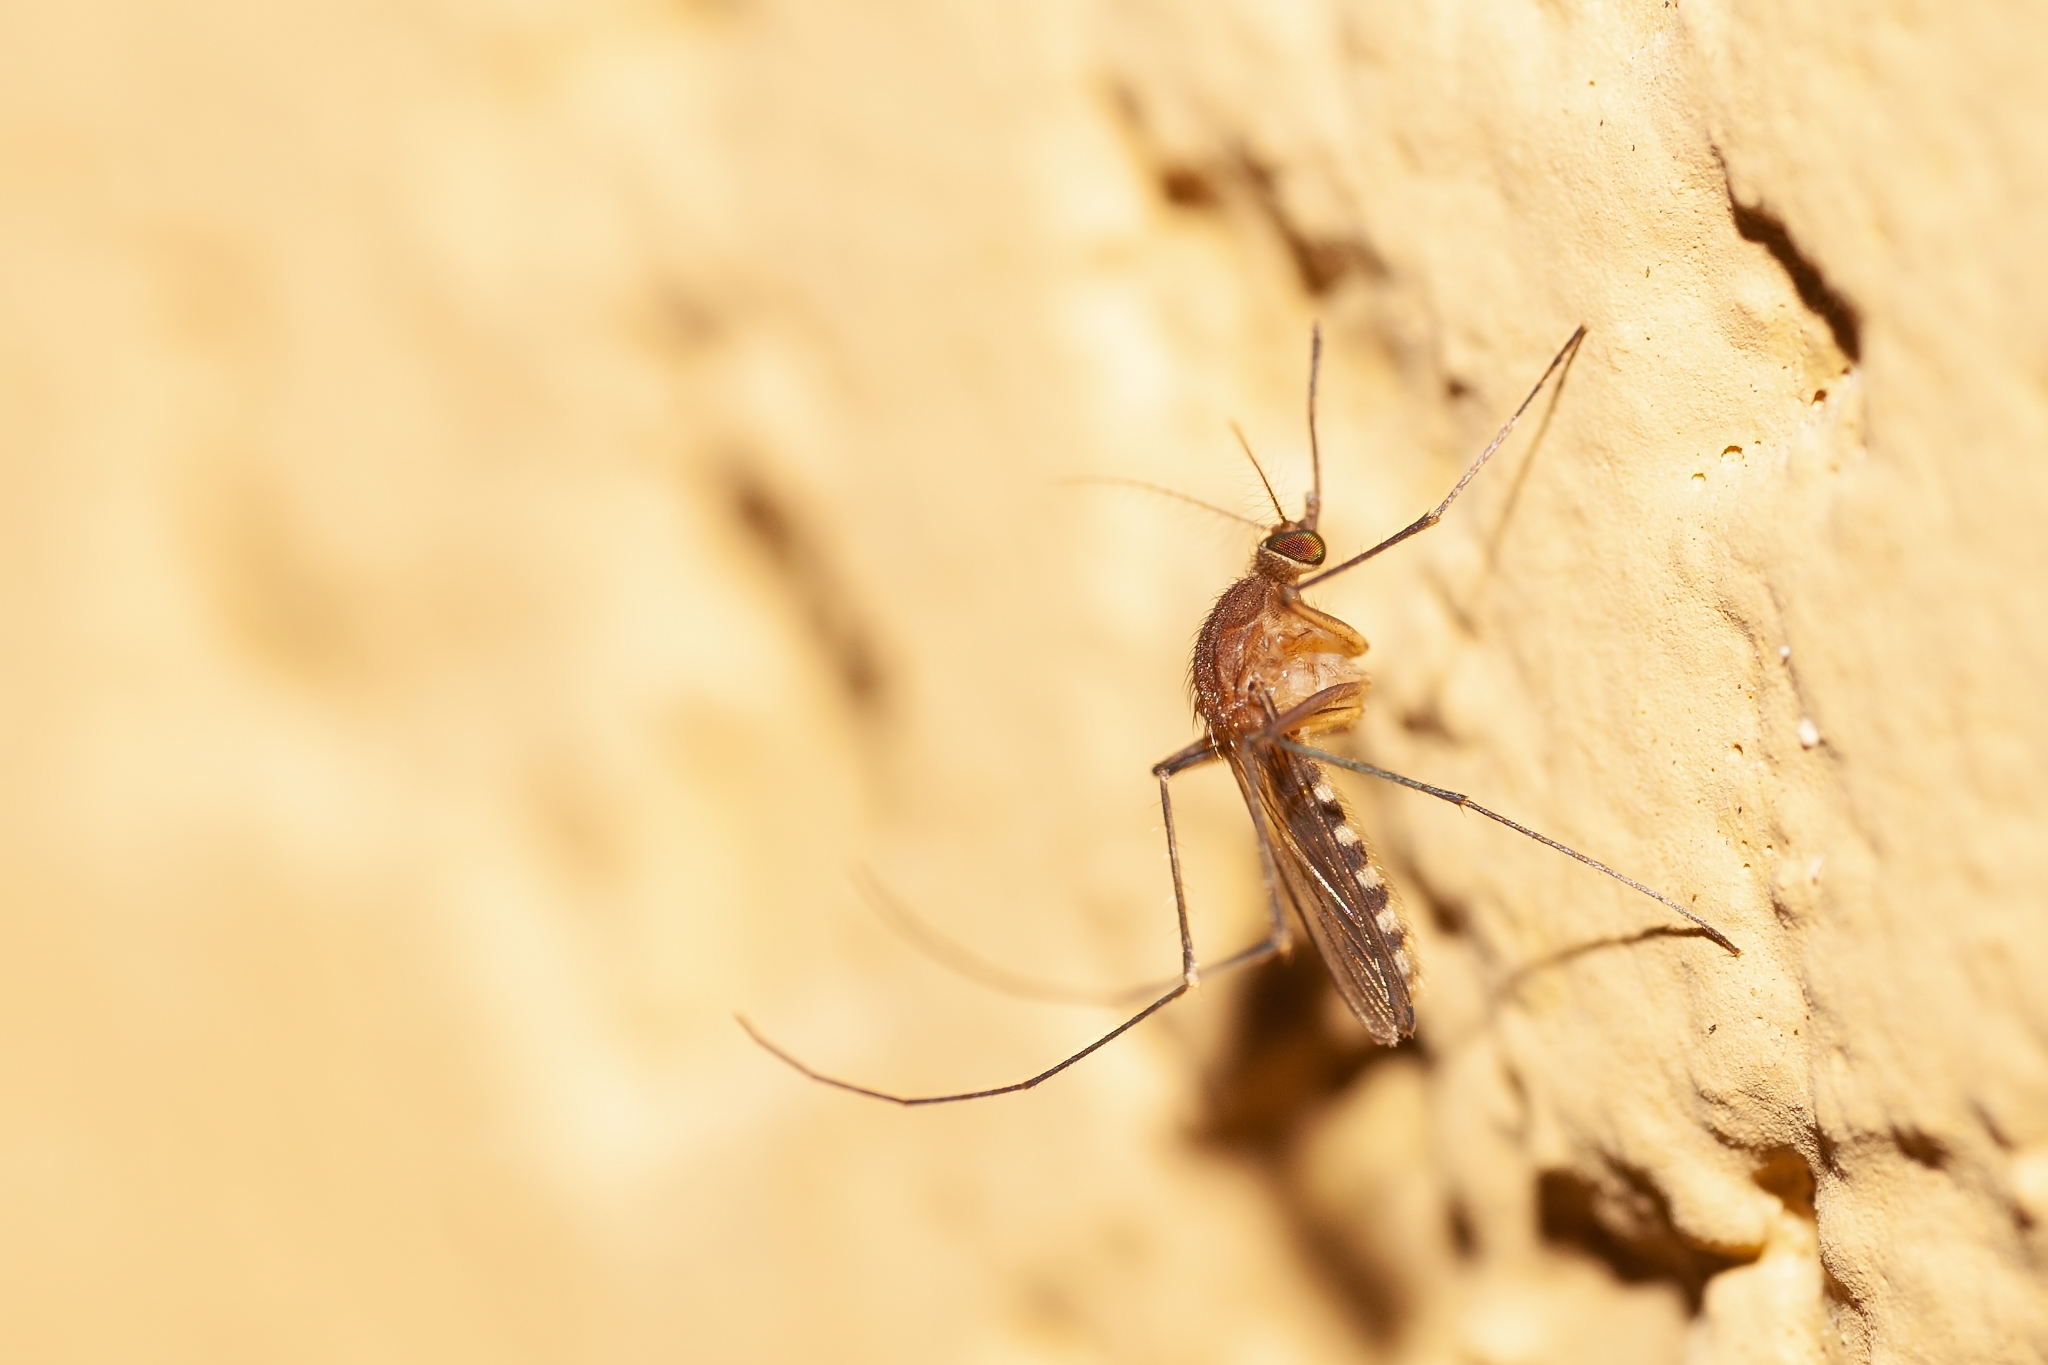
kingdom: Animalia
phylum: Arthropoda
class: Insecta
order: Diptera
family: Culicidae
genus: Culex
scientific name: Culex peccator
